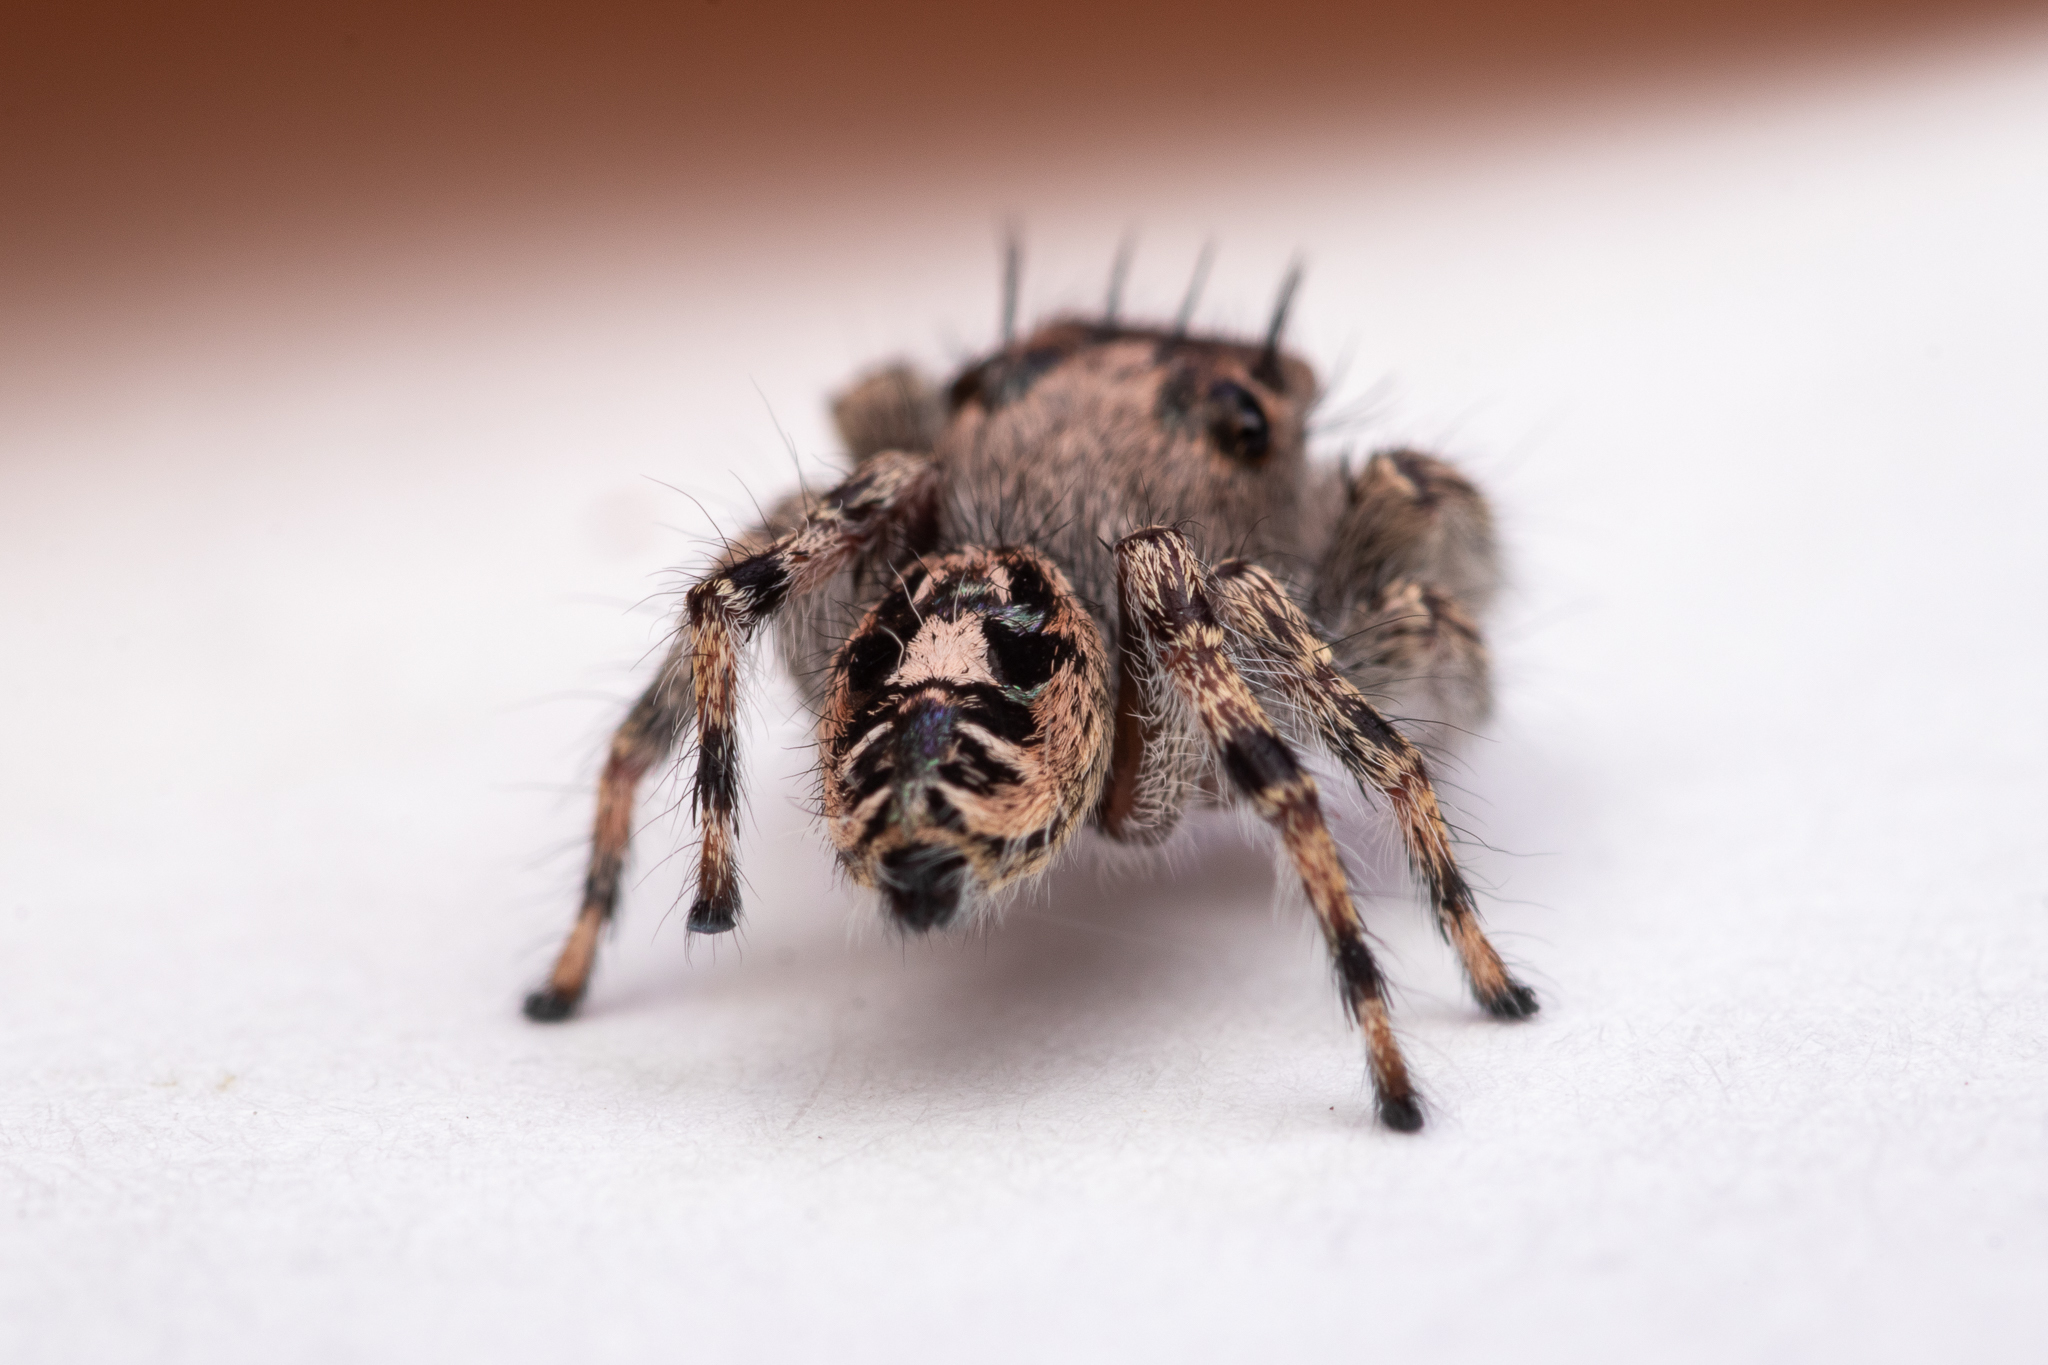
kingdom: Animalia
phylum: Arthropoda
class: Arachnida
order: Araneae
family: Salticidae
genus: Phidippus
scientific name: Phidippus putnami
